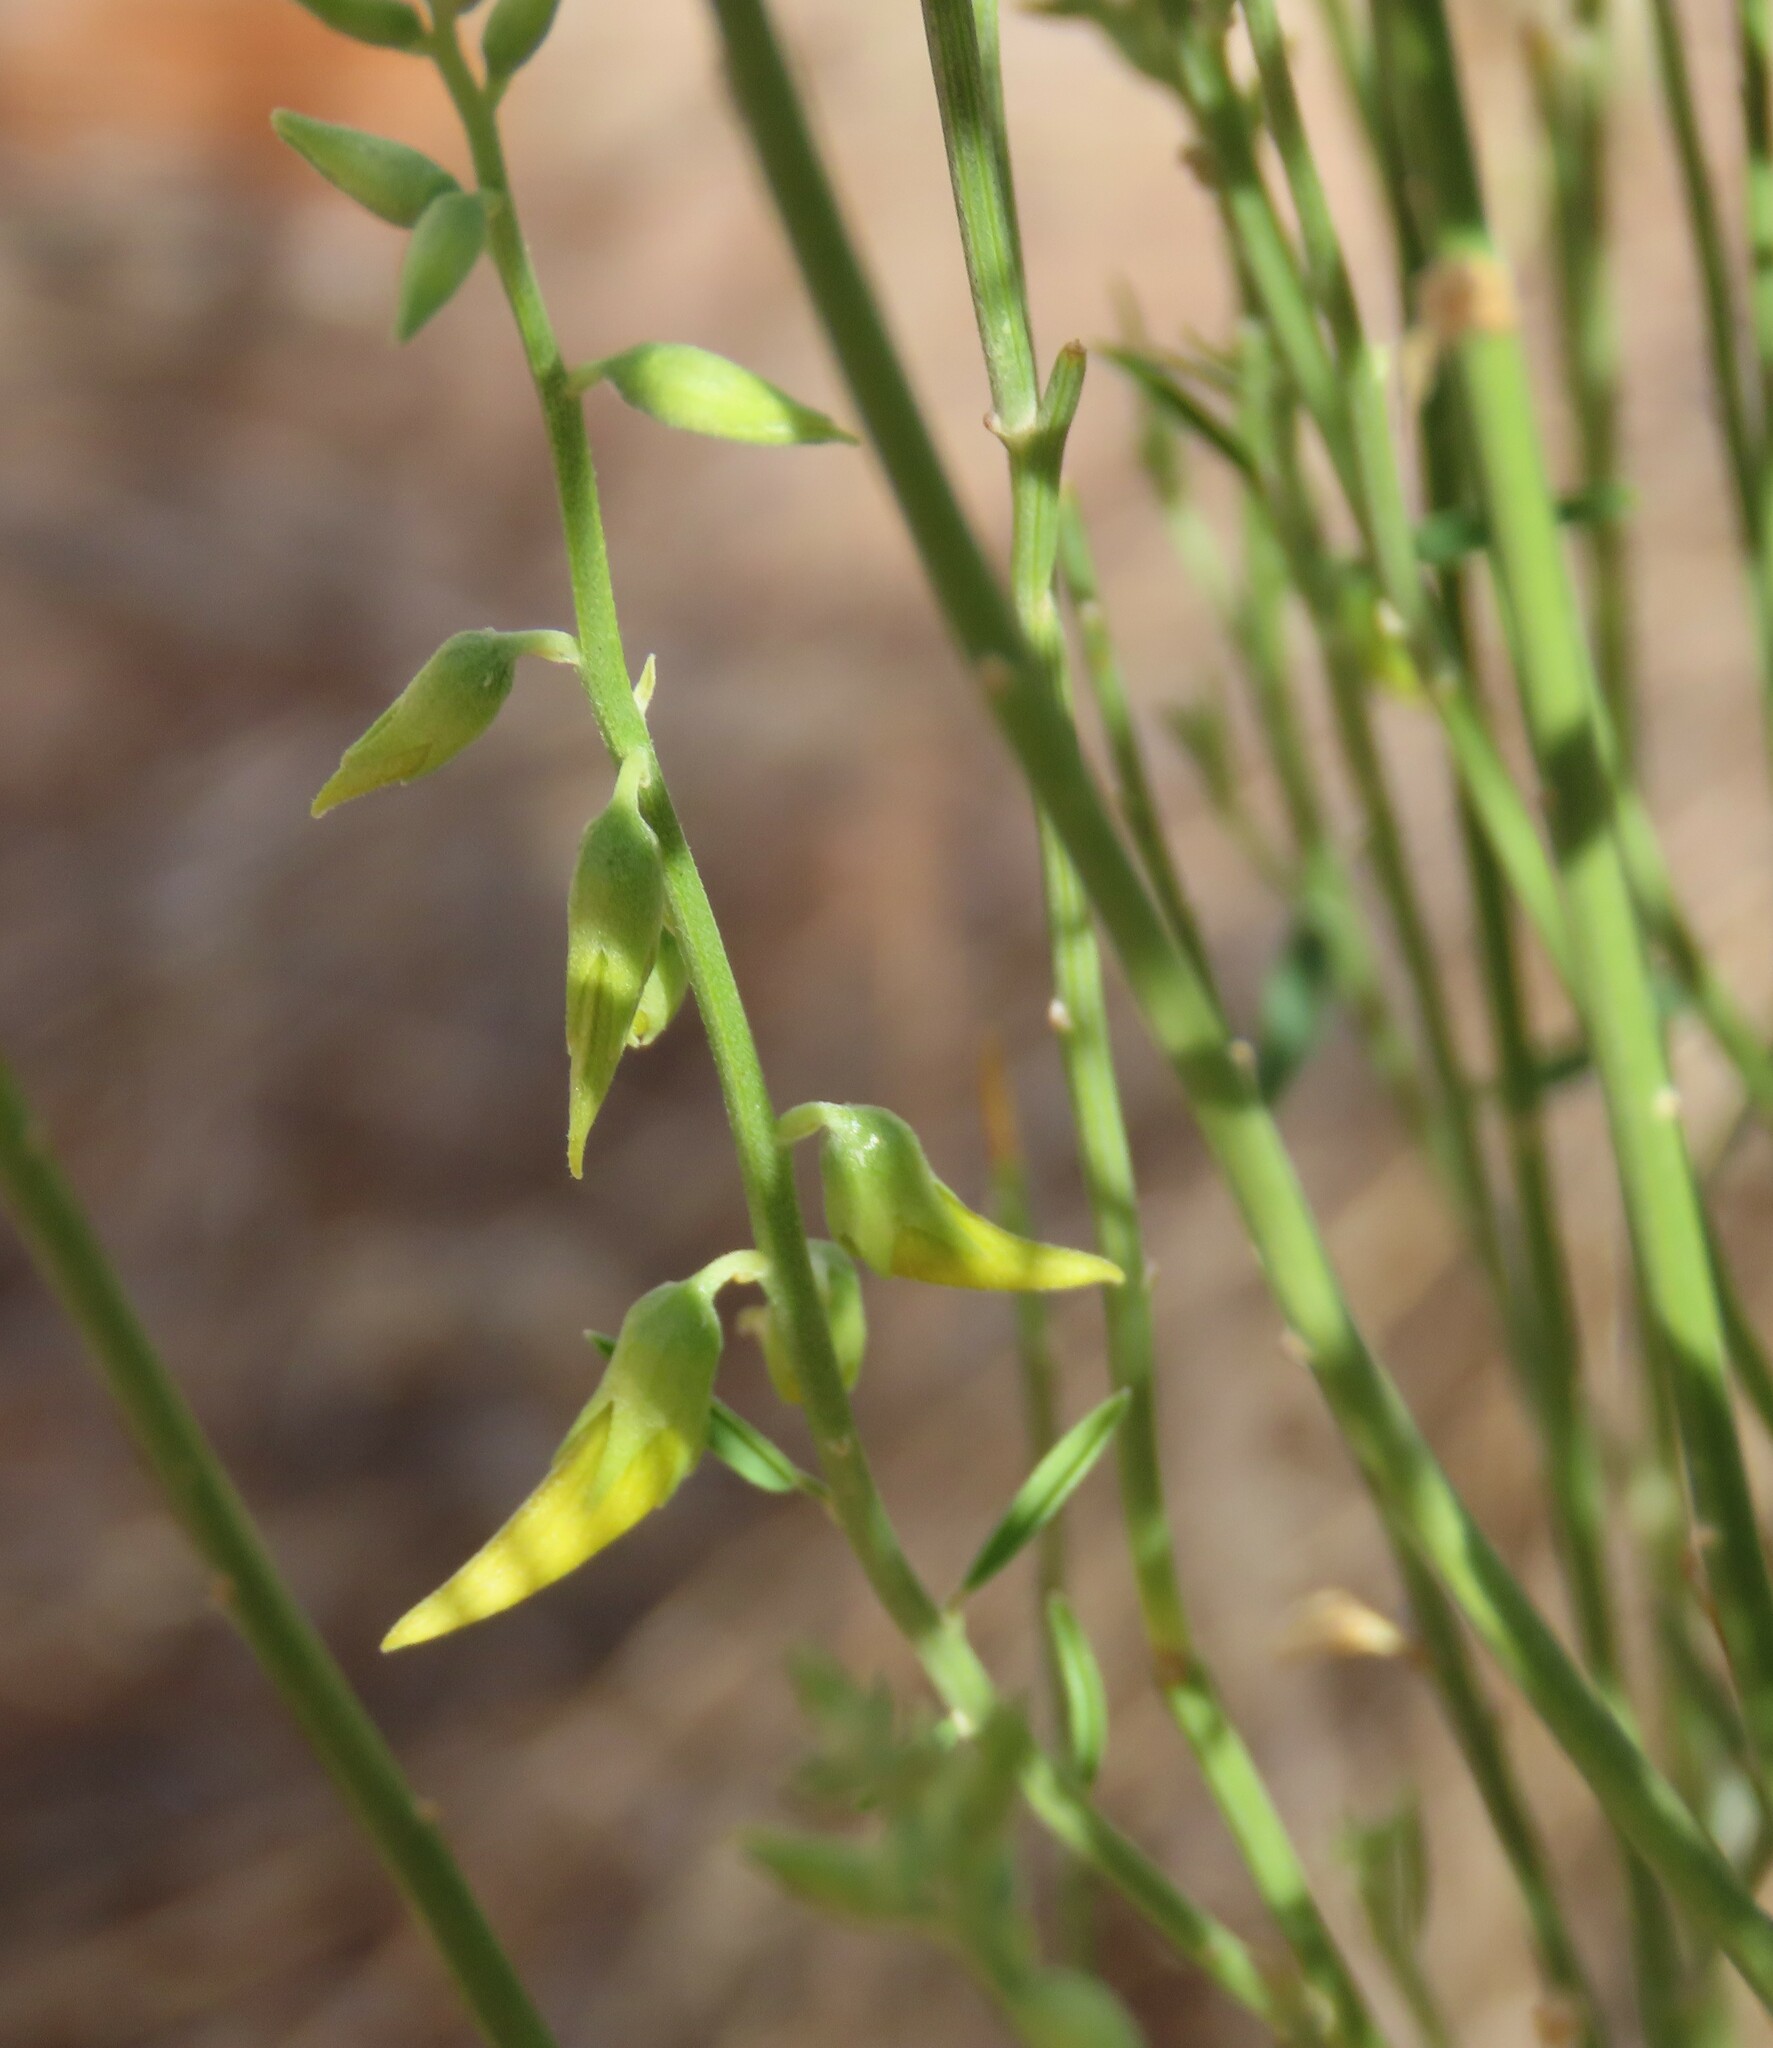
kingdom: Plantae
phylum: Tracheophyta
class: Magnoliopsida
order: Fabales
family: Fabaceae
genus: Crotalaria
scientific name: Crotalaria spartioides
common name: Dunebush
